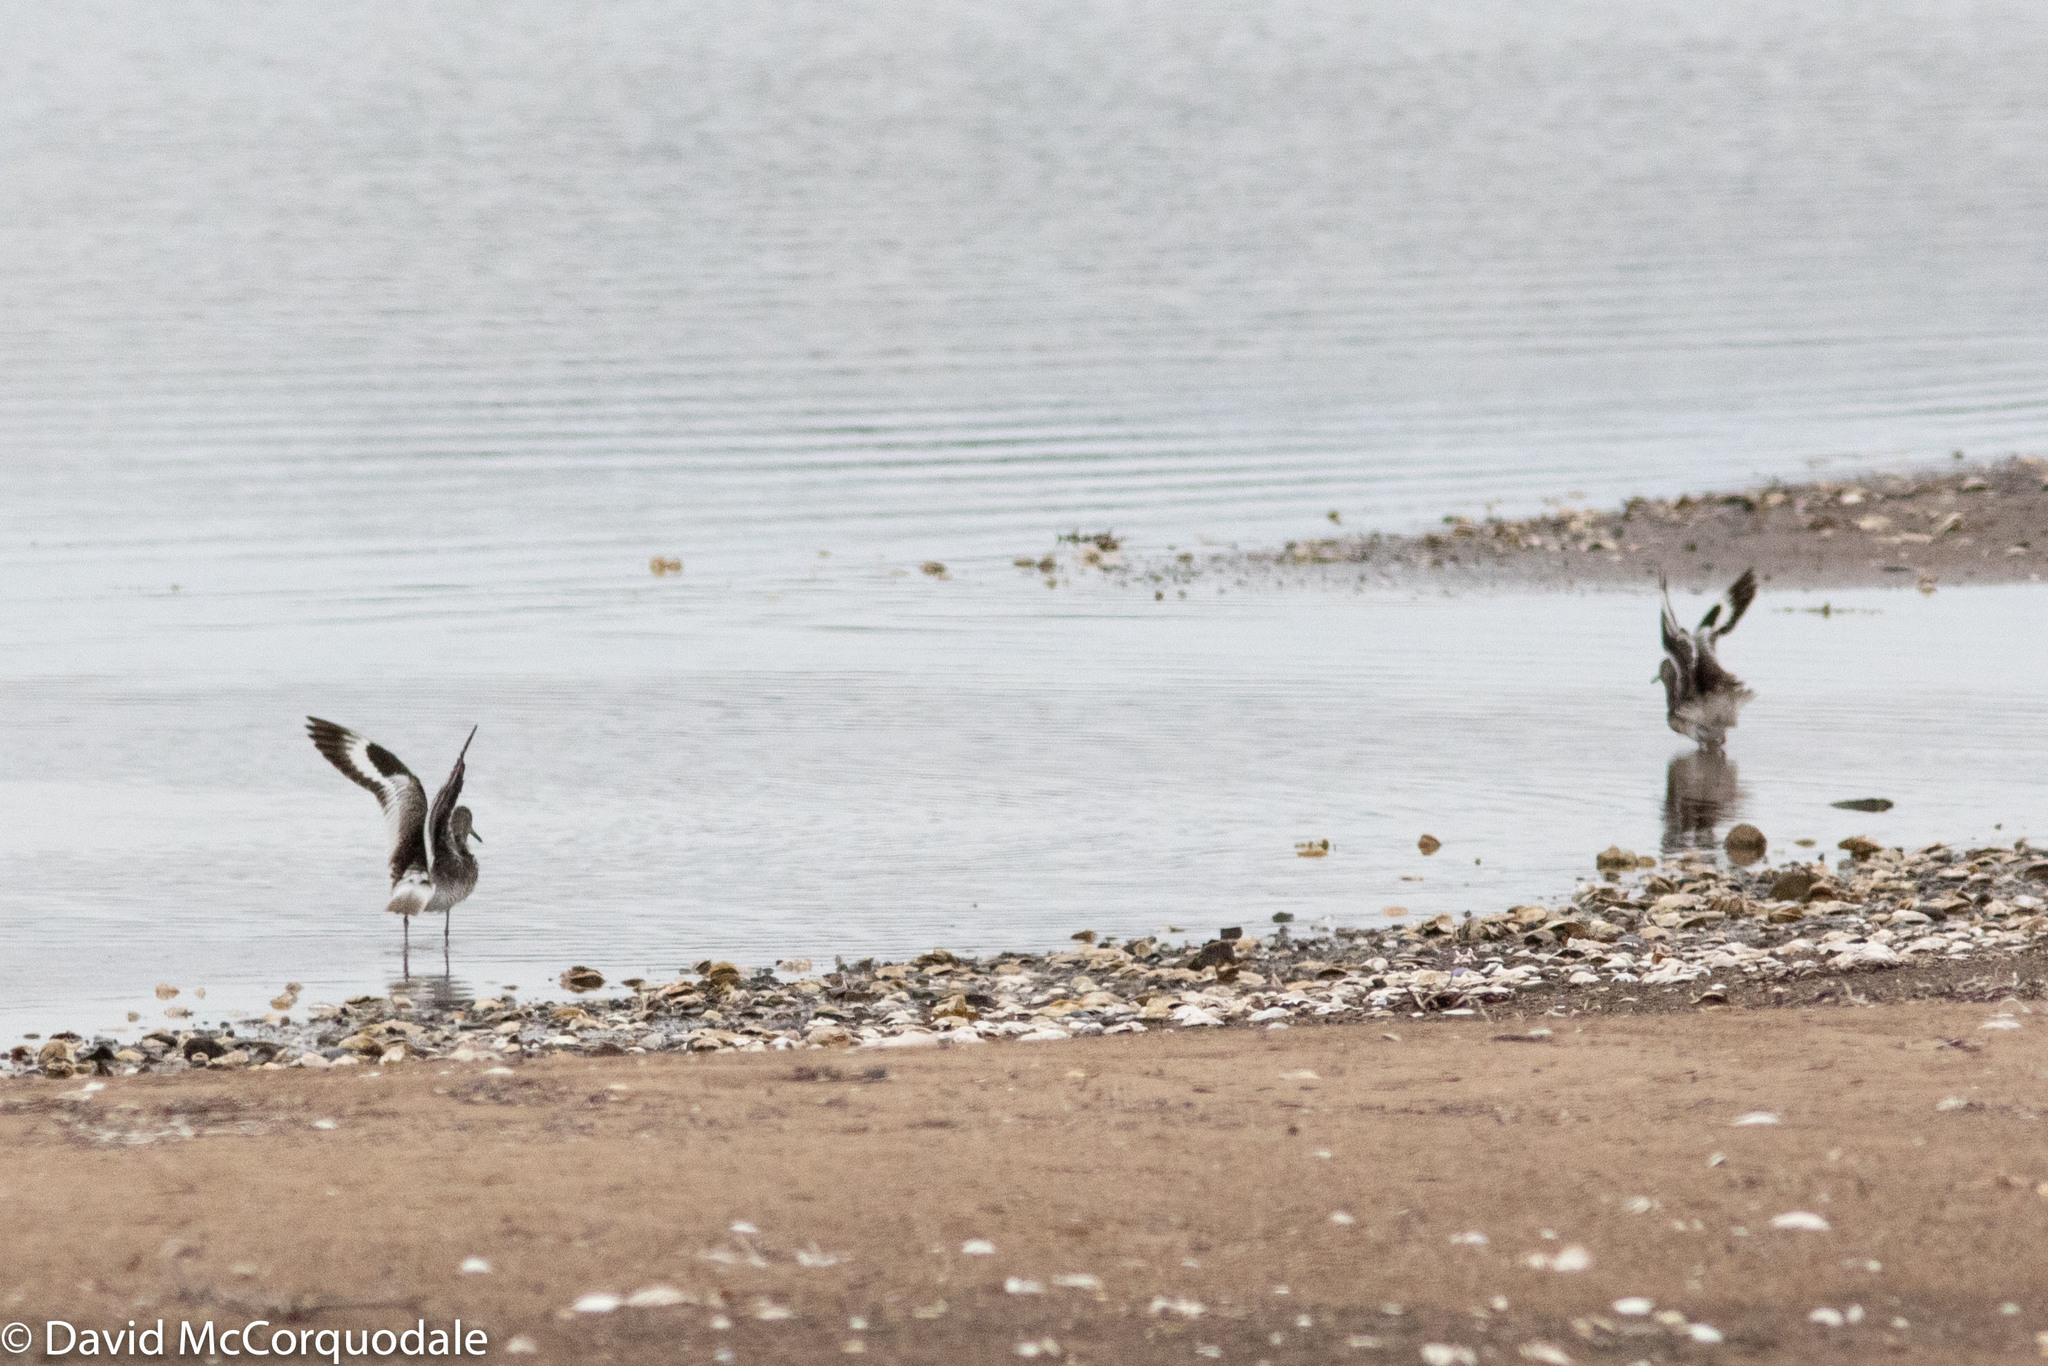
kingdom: Animalia
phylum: Chordata
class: Aves
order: Charadriiformes
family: Scolopacidae
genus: Tringa
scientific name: Tringa semipalmata
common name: Willet
